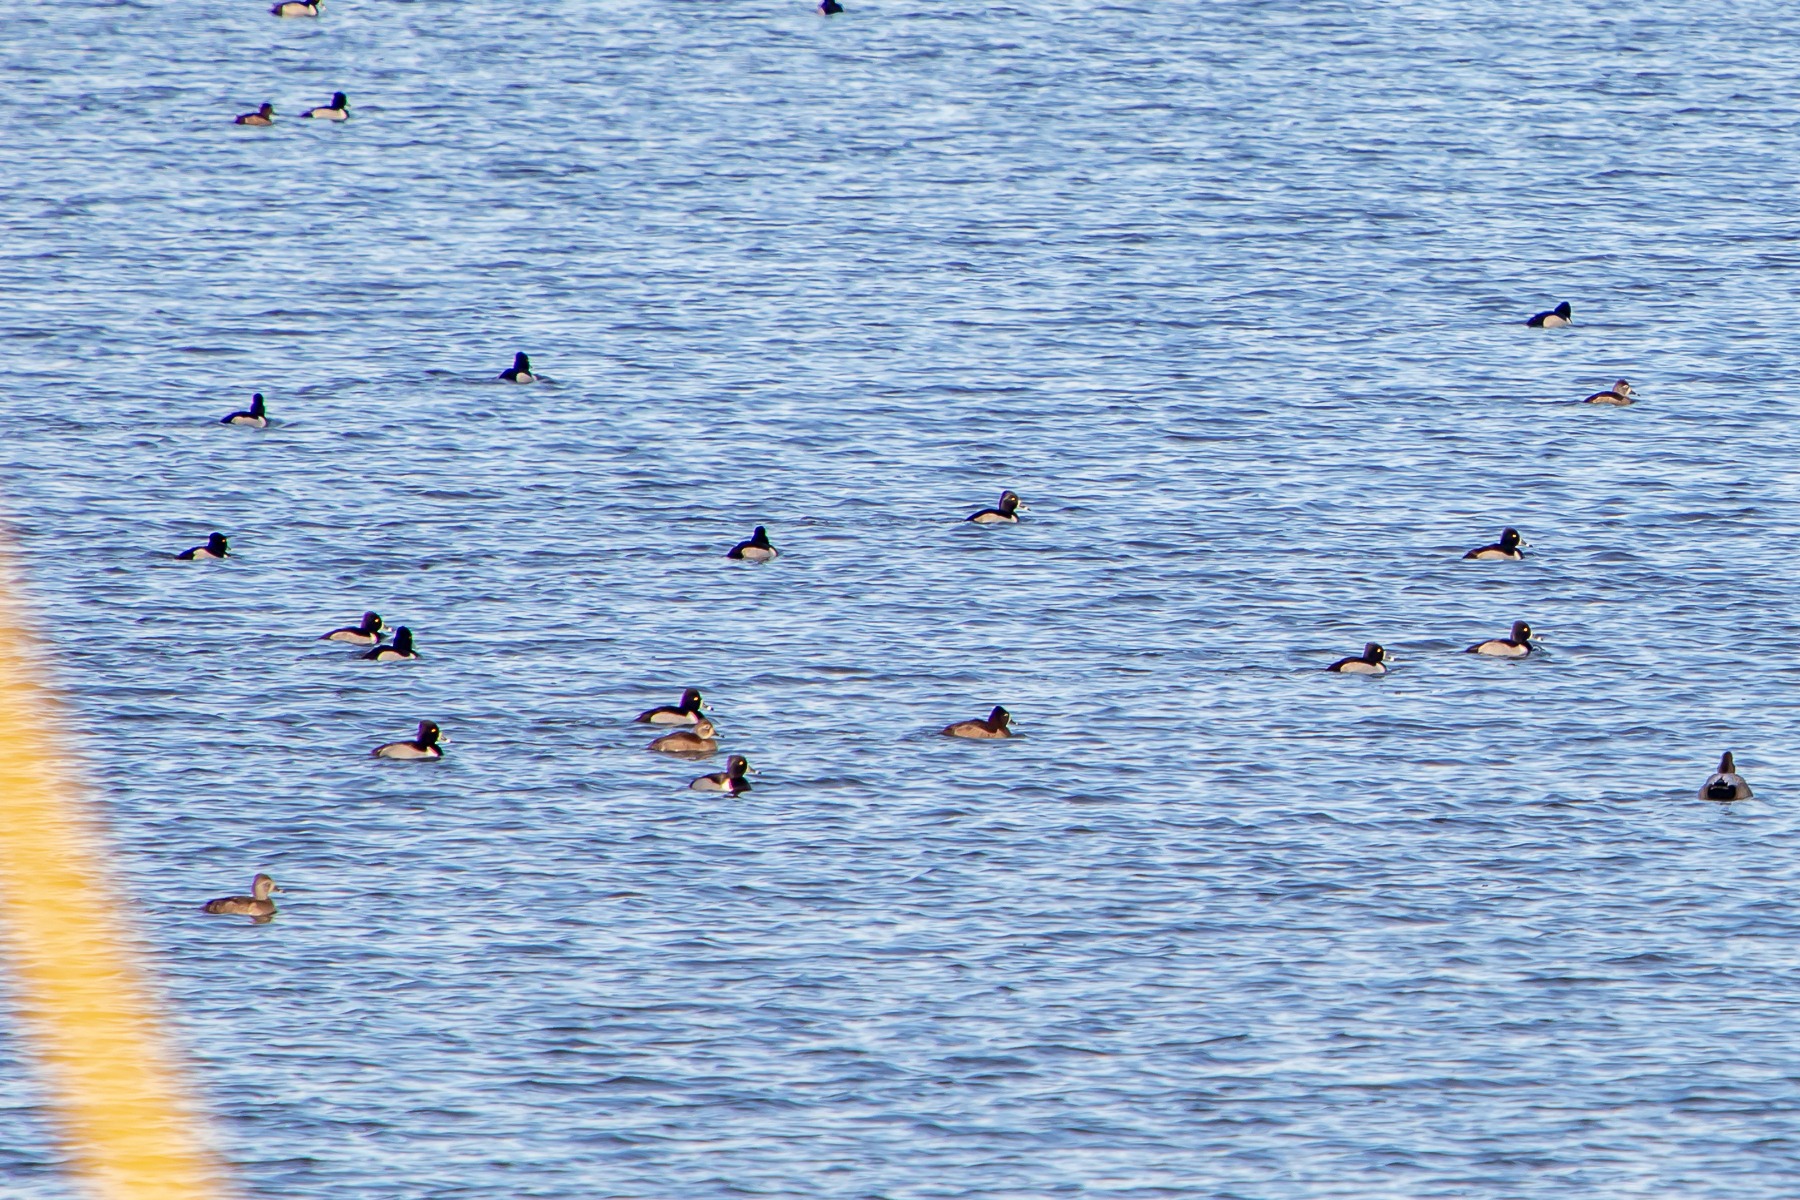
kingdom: Animalia
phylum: Chordata
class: Aves
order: Anseriformes
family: Anatidae
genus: Aythya
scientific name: Aythya collaris
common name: Ring-necked duck
